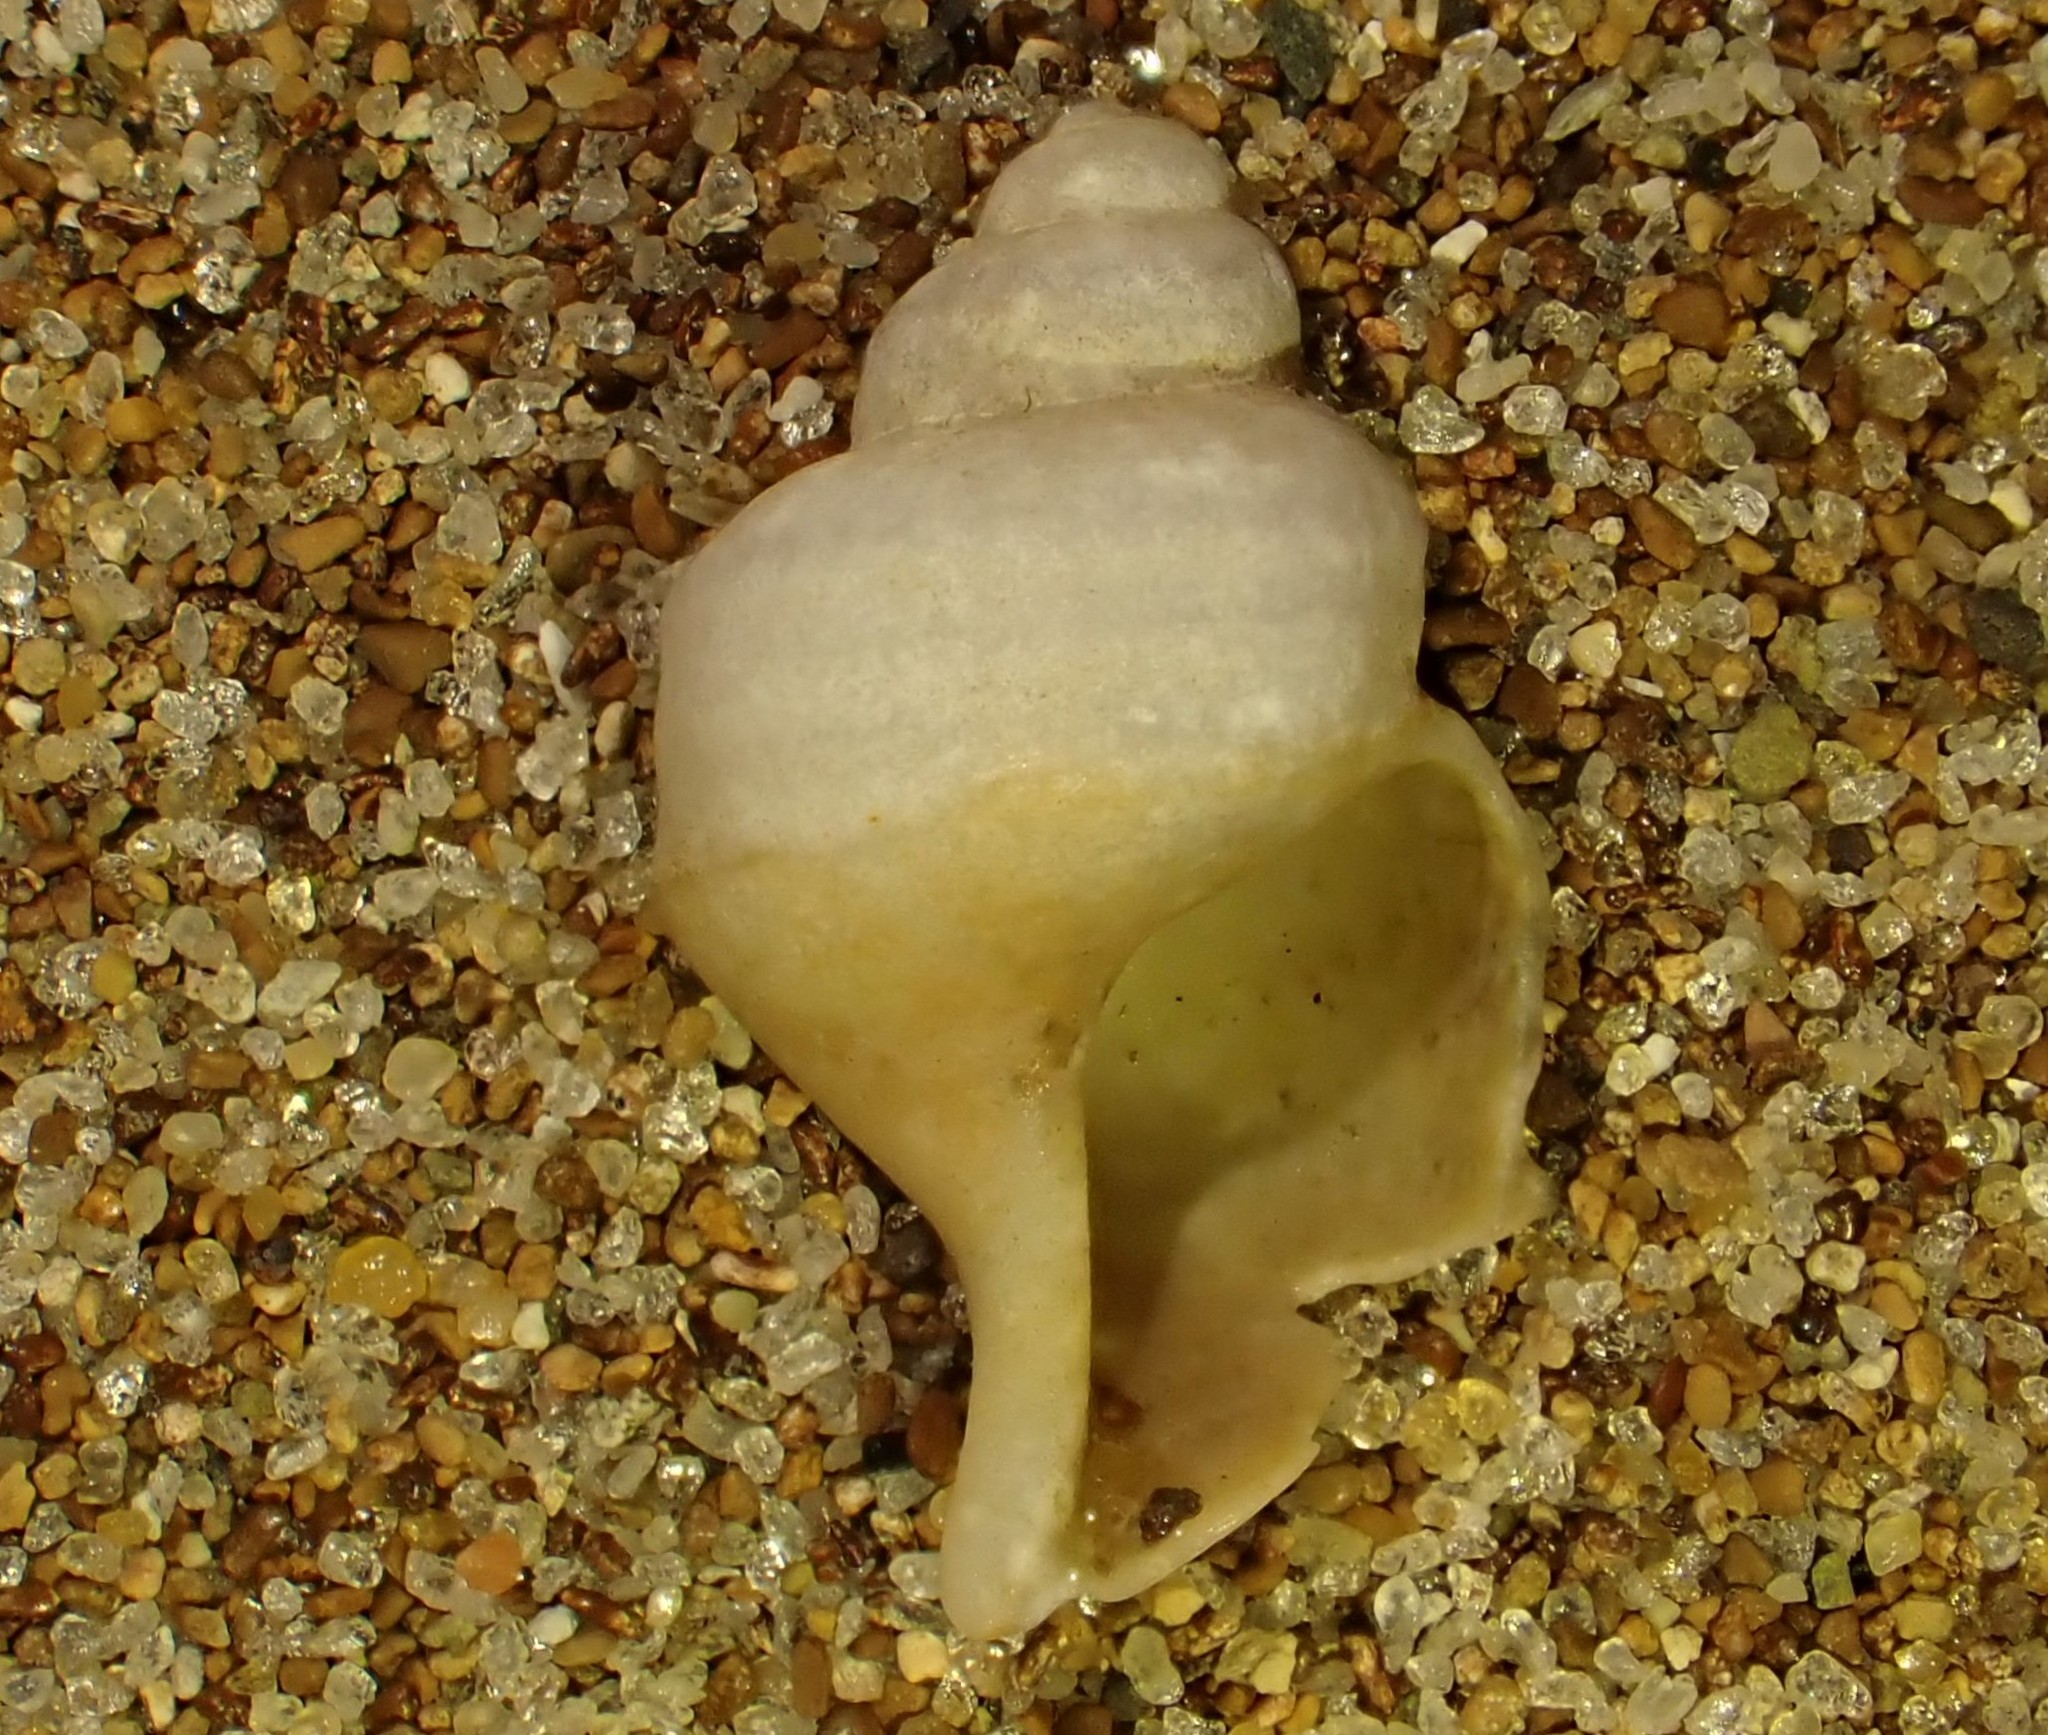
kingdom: Animalia
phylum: Mollusca
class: Gastropoda
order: Littorinimorpha
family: Struthiolariidae
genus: Pelicaria
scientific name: Pelicaria vermis
